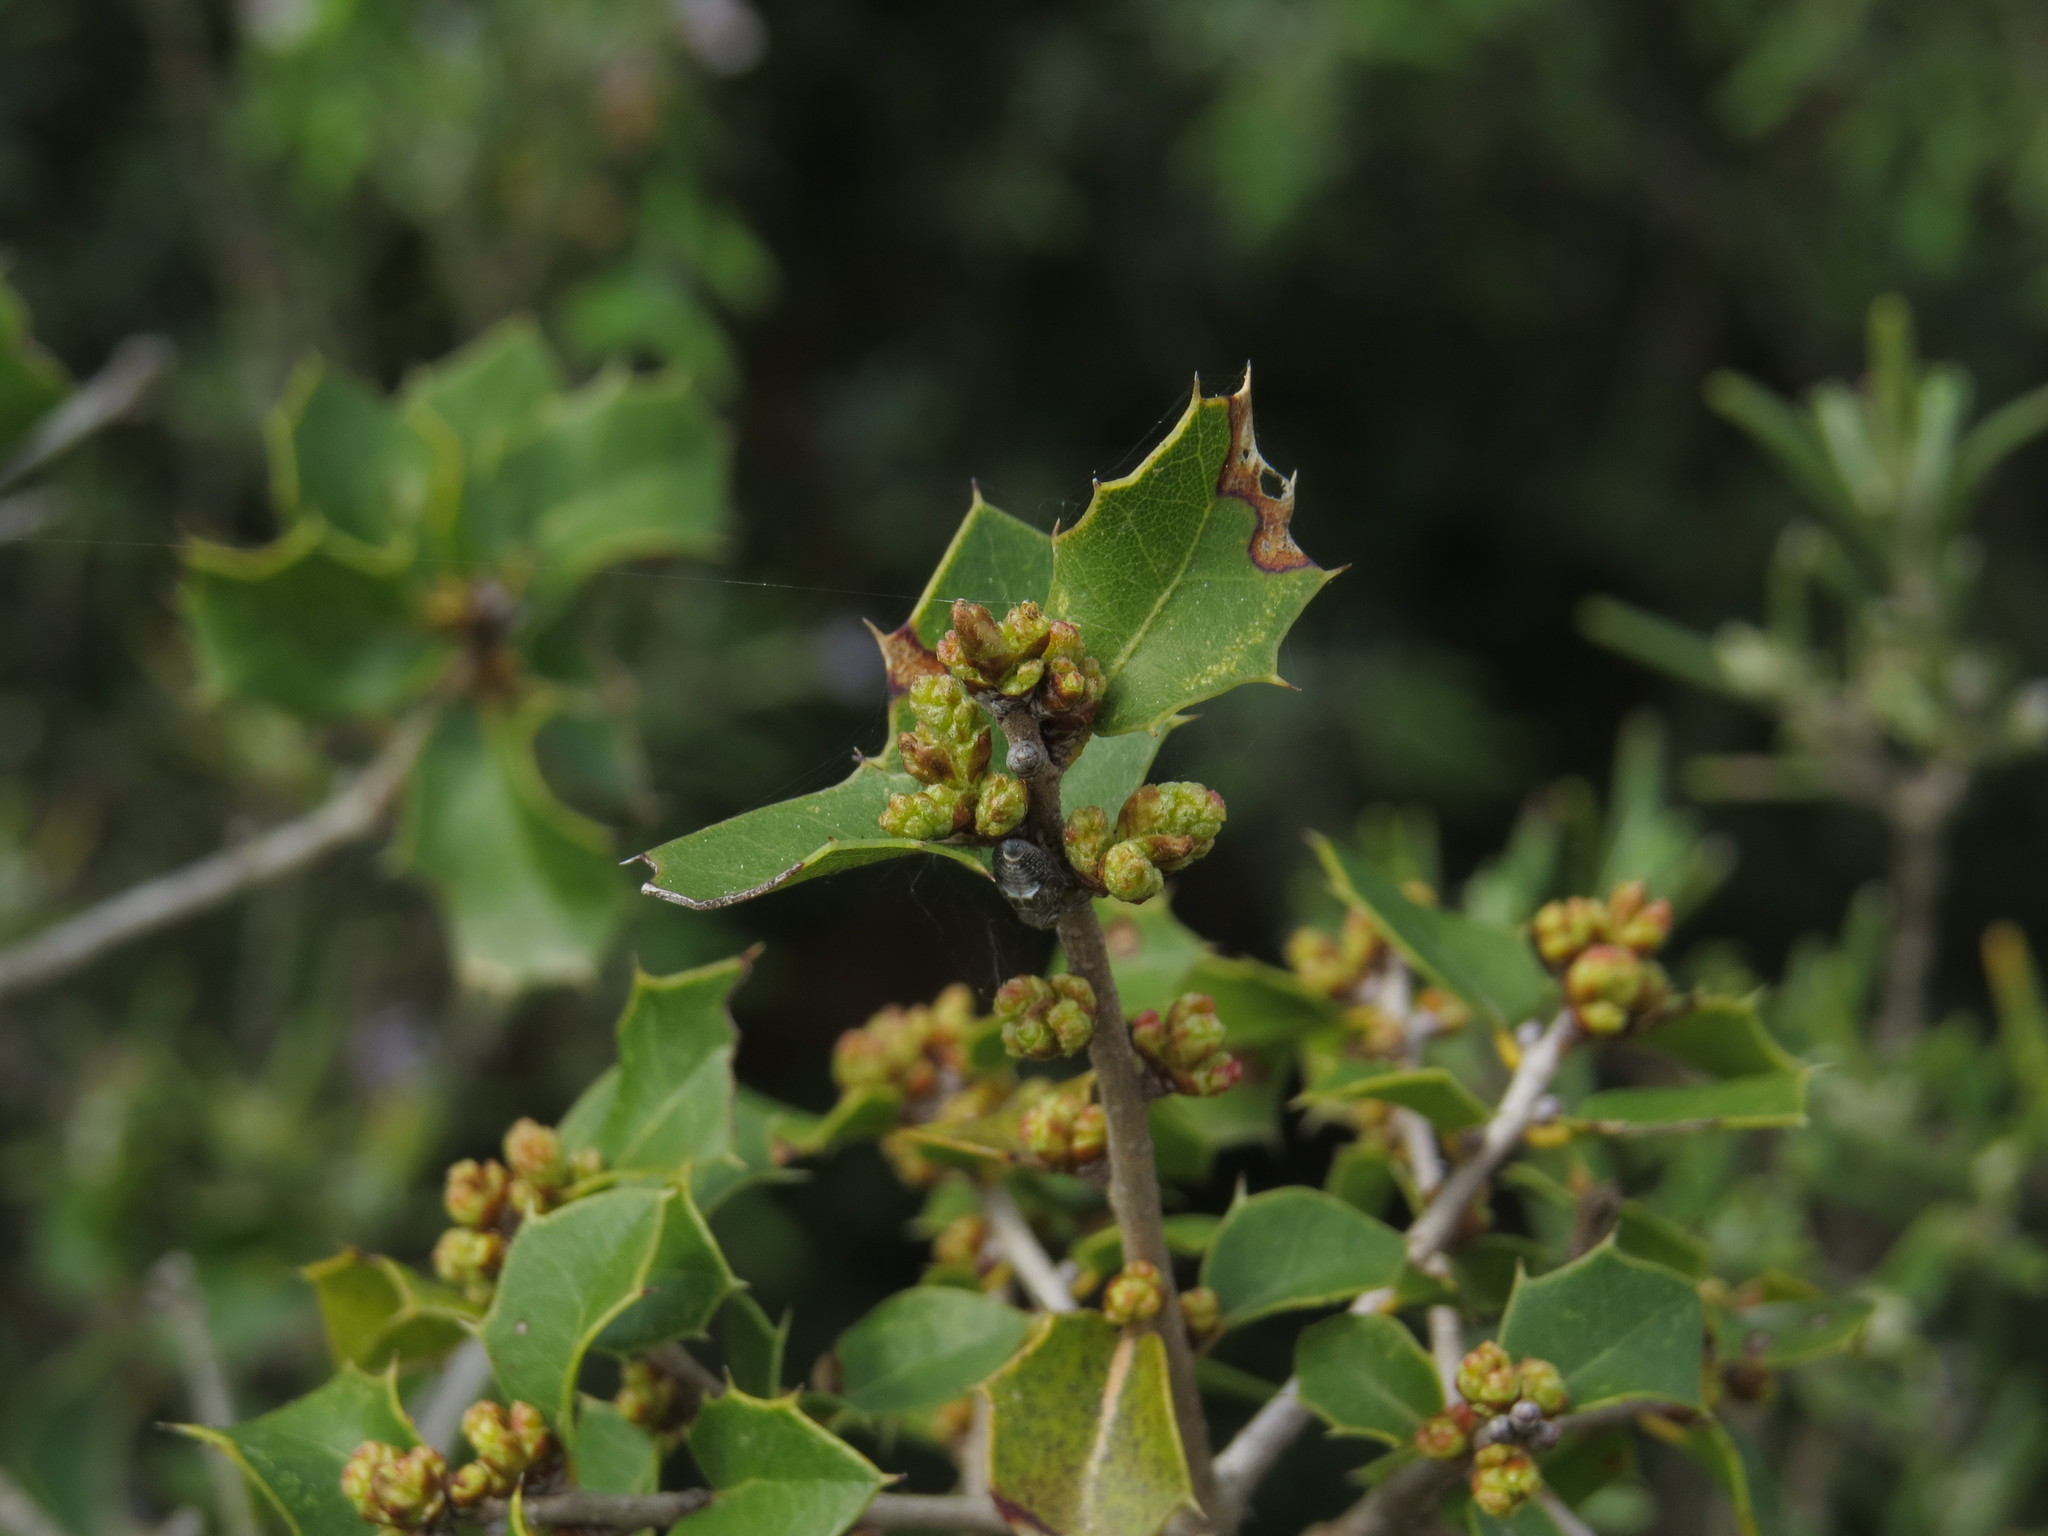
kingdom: Plantae
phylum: Tracheophyta
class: Magnoliopsida
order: Fagales
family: Fagaceae
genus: Quercus
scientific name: Quercus coccifera
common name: Kermes oak
